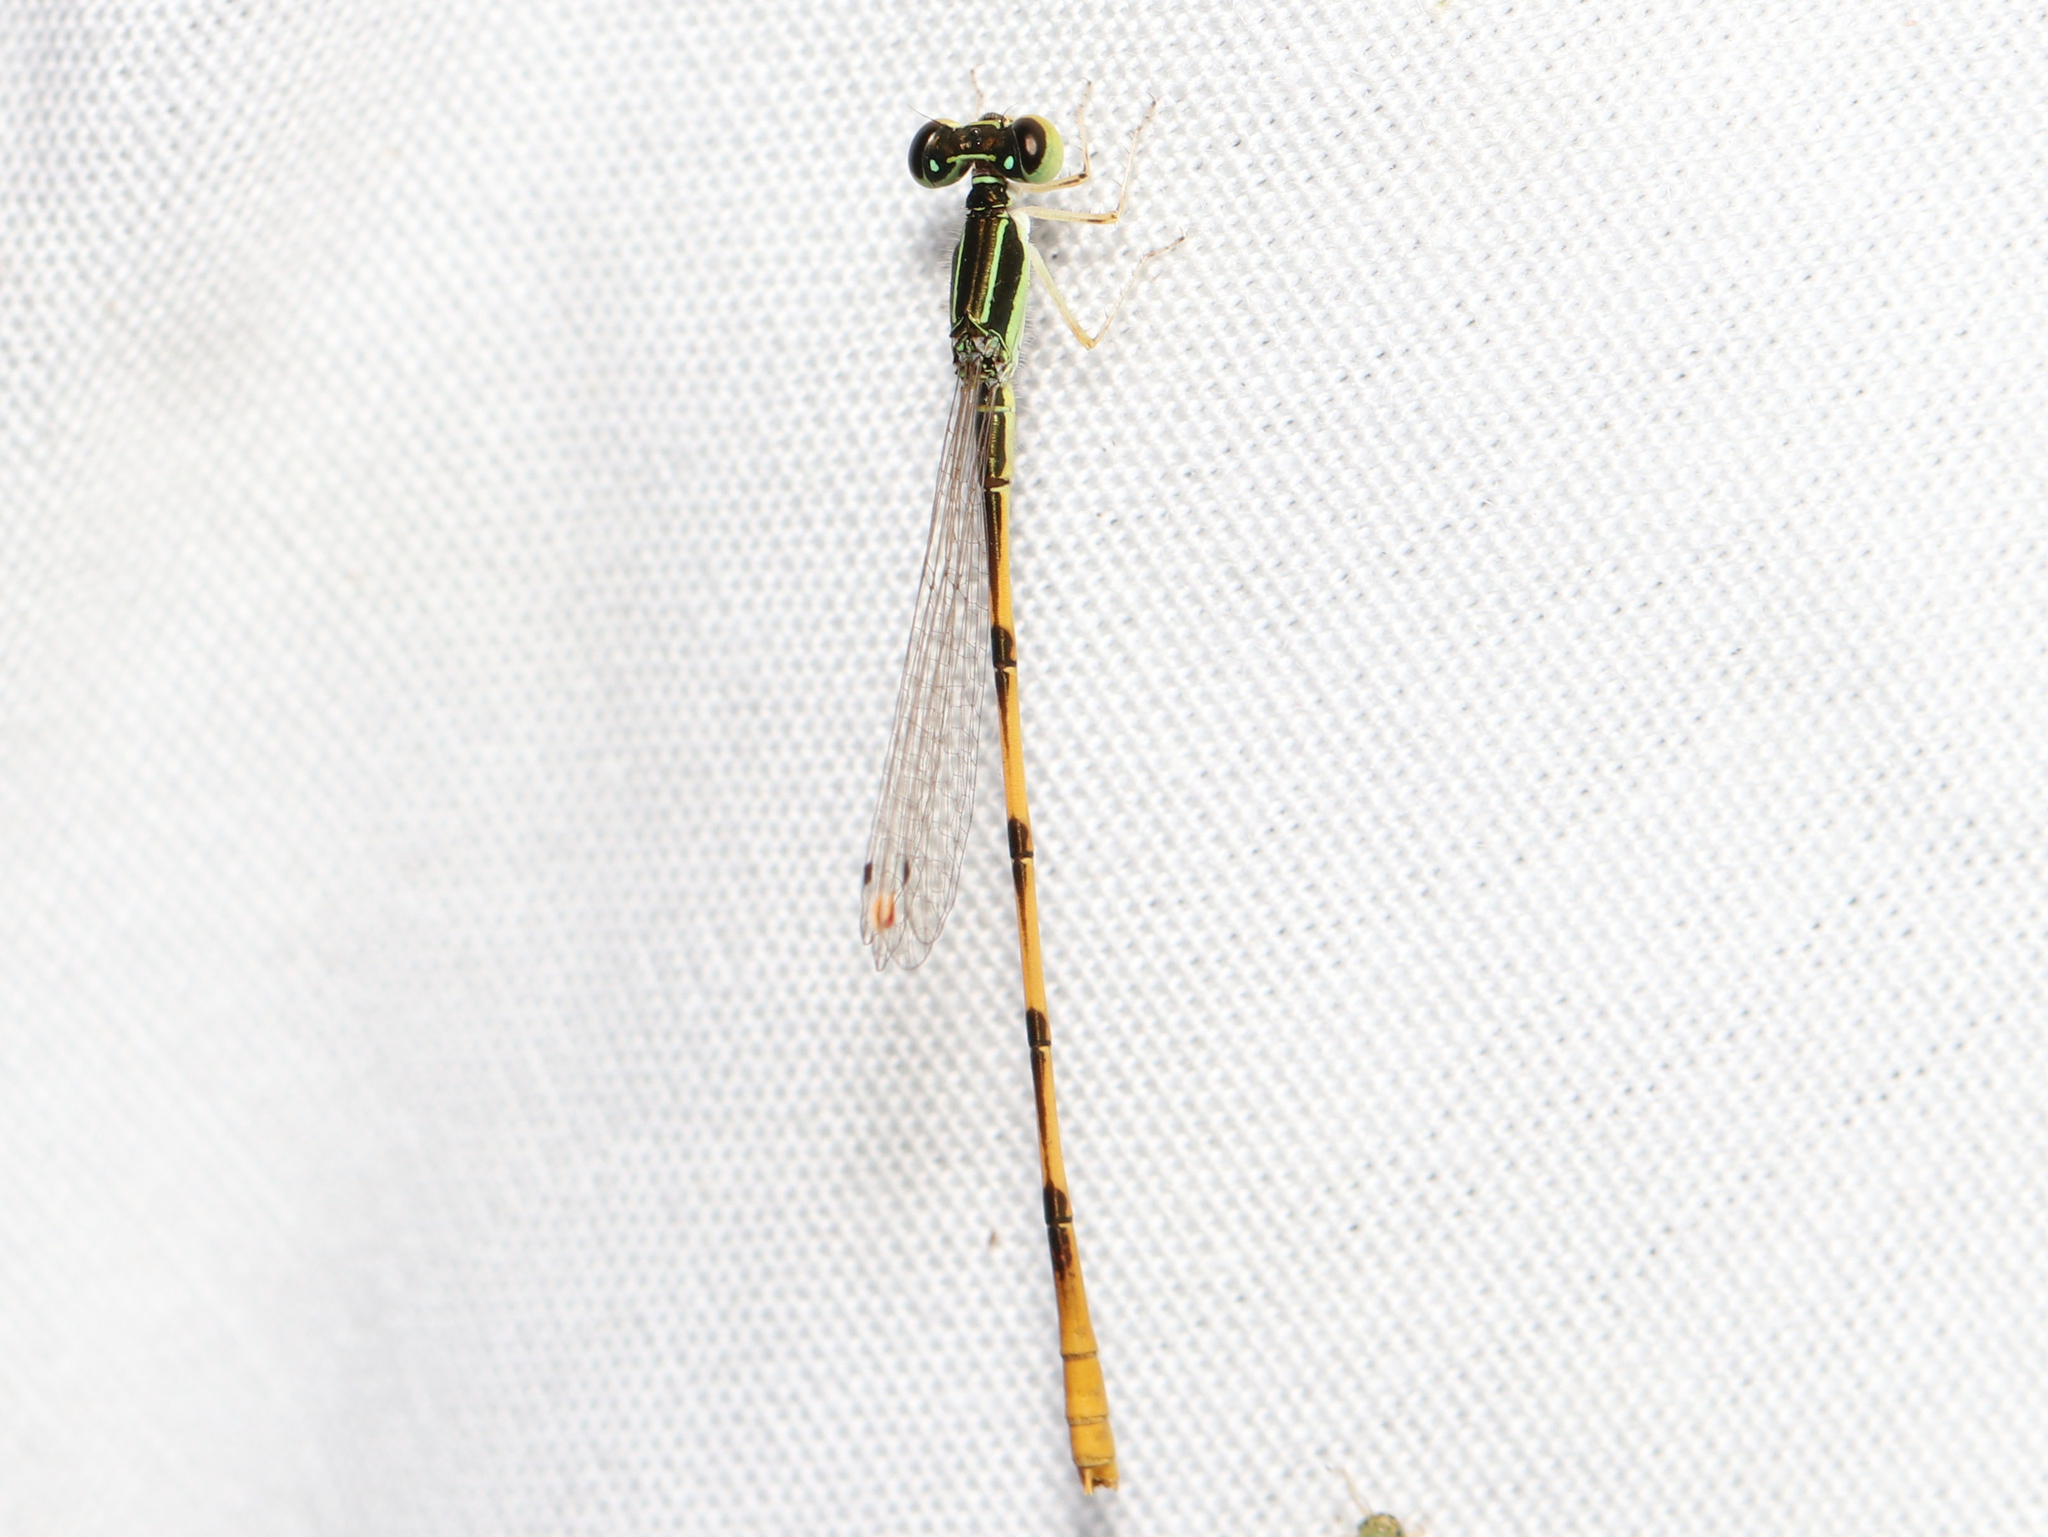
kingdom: Animalia
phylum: Arthropoda
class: Insecta
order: Odonata
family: Coenagrionidae
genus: Ischnura
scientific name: Ischnura hastata
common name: Citrine forktail
